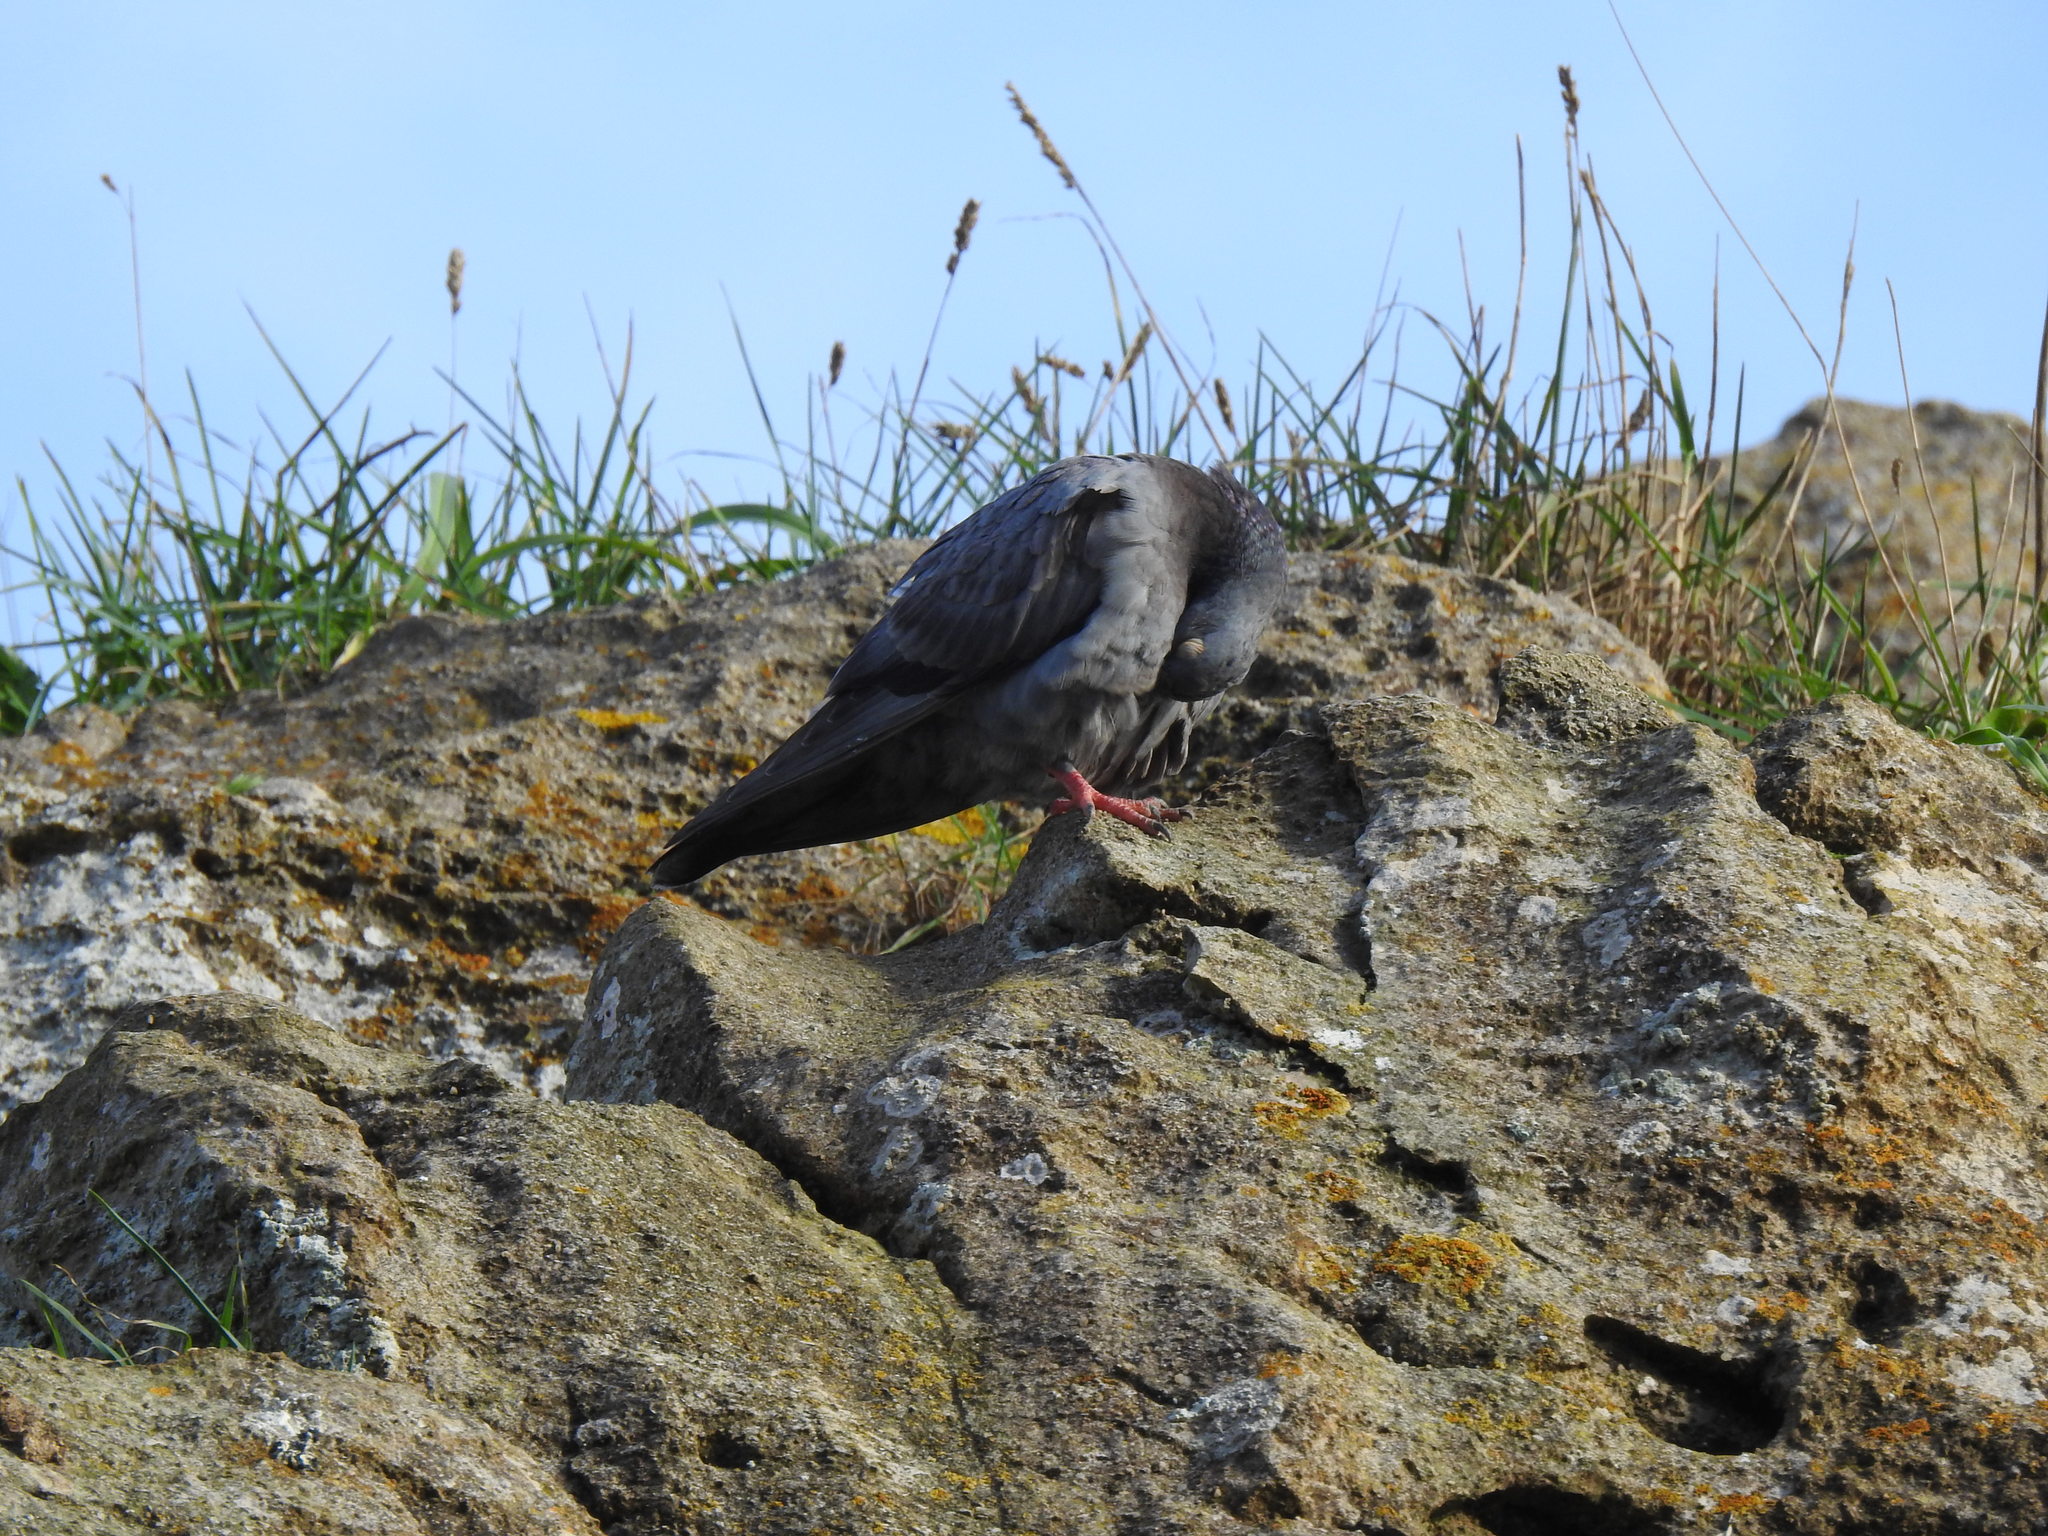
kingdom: Animalia
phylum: Chordata
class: Aves
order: Columbiformes
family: Columbidae
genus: Columba
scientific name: Columba livia
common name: Rock pigeon
